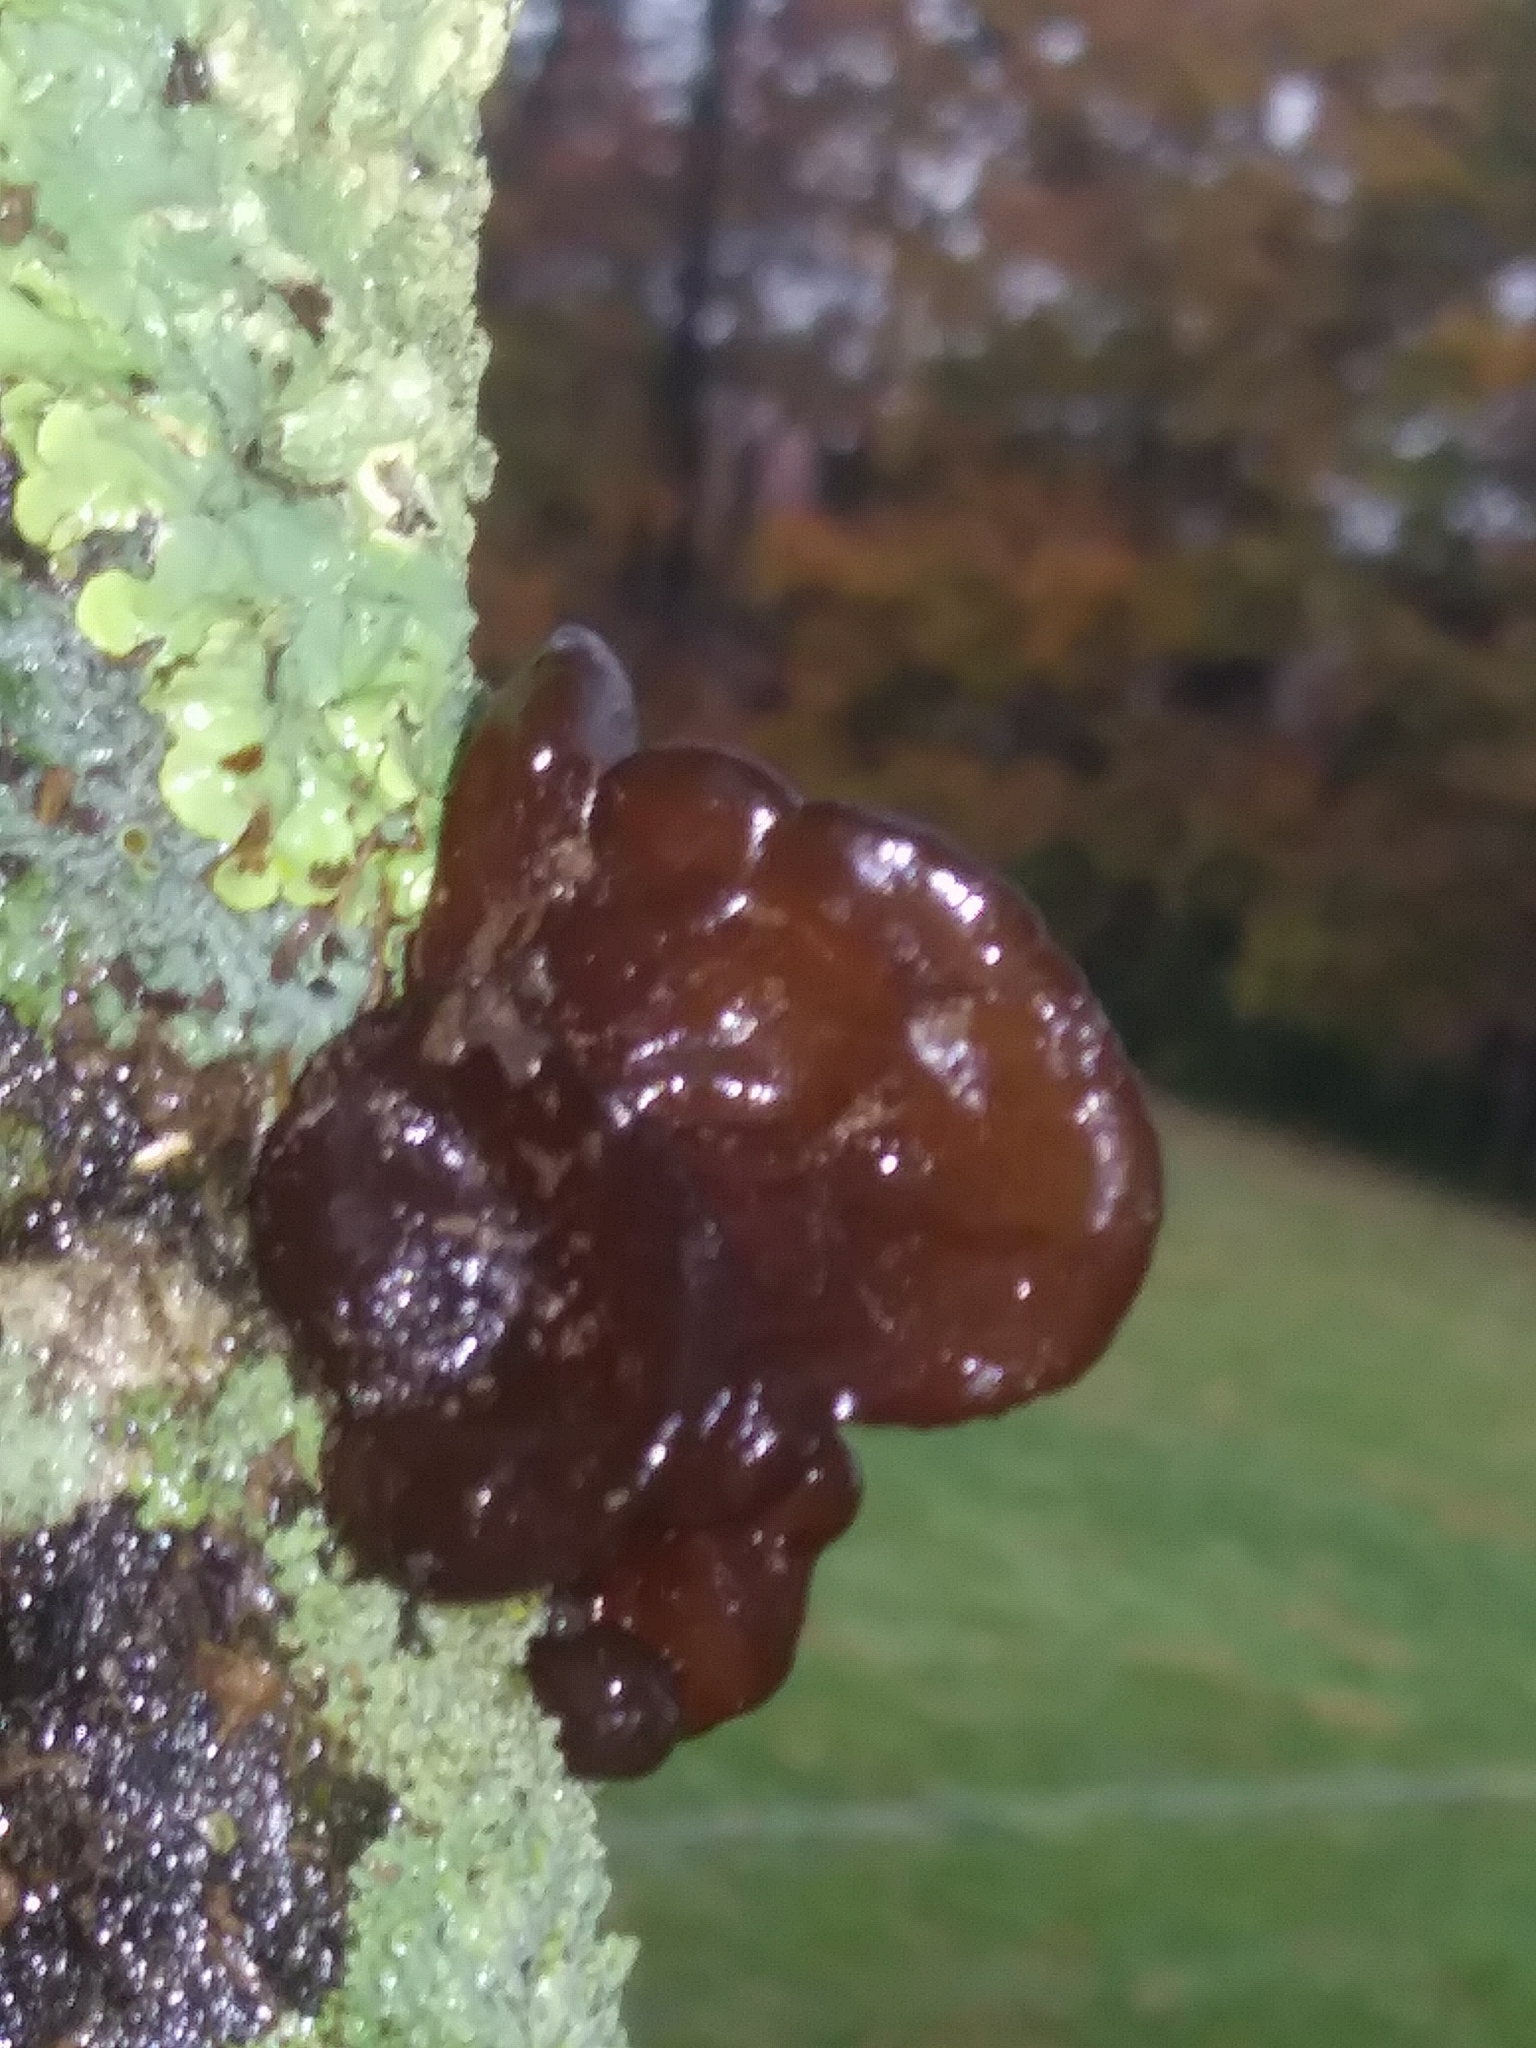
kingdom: Fungi
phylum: Basidiomycota
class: Agaricomycetes
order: Auriculariales
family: Auriculariaceae
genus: Exidia
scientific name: Exidia
